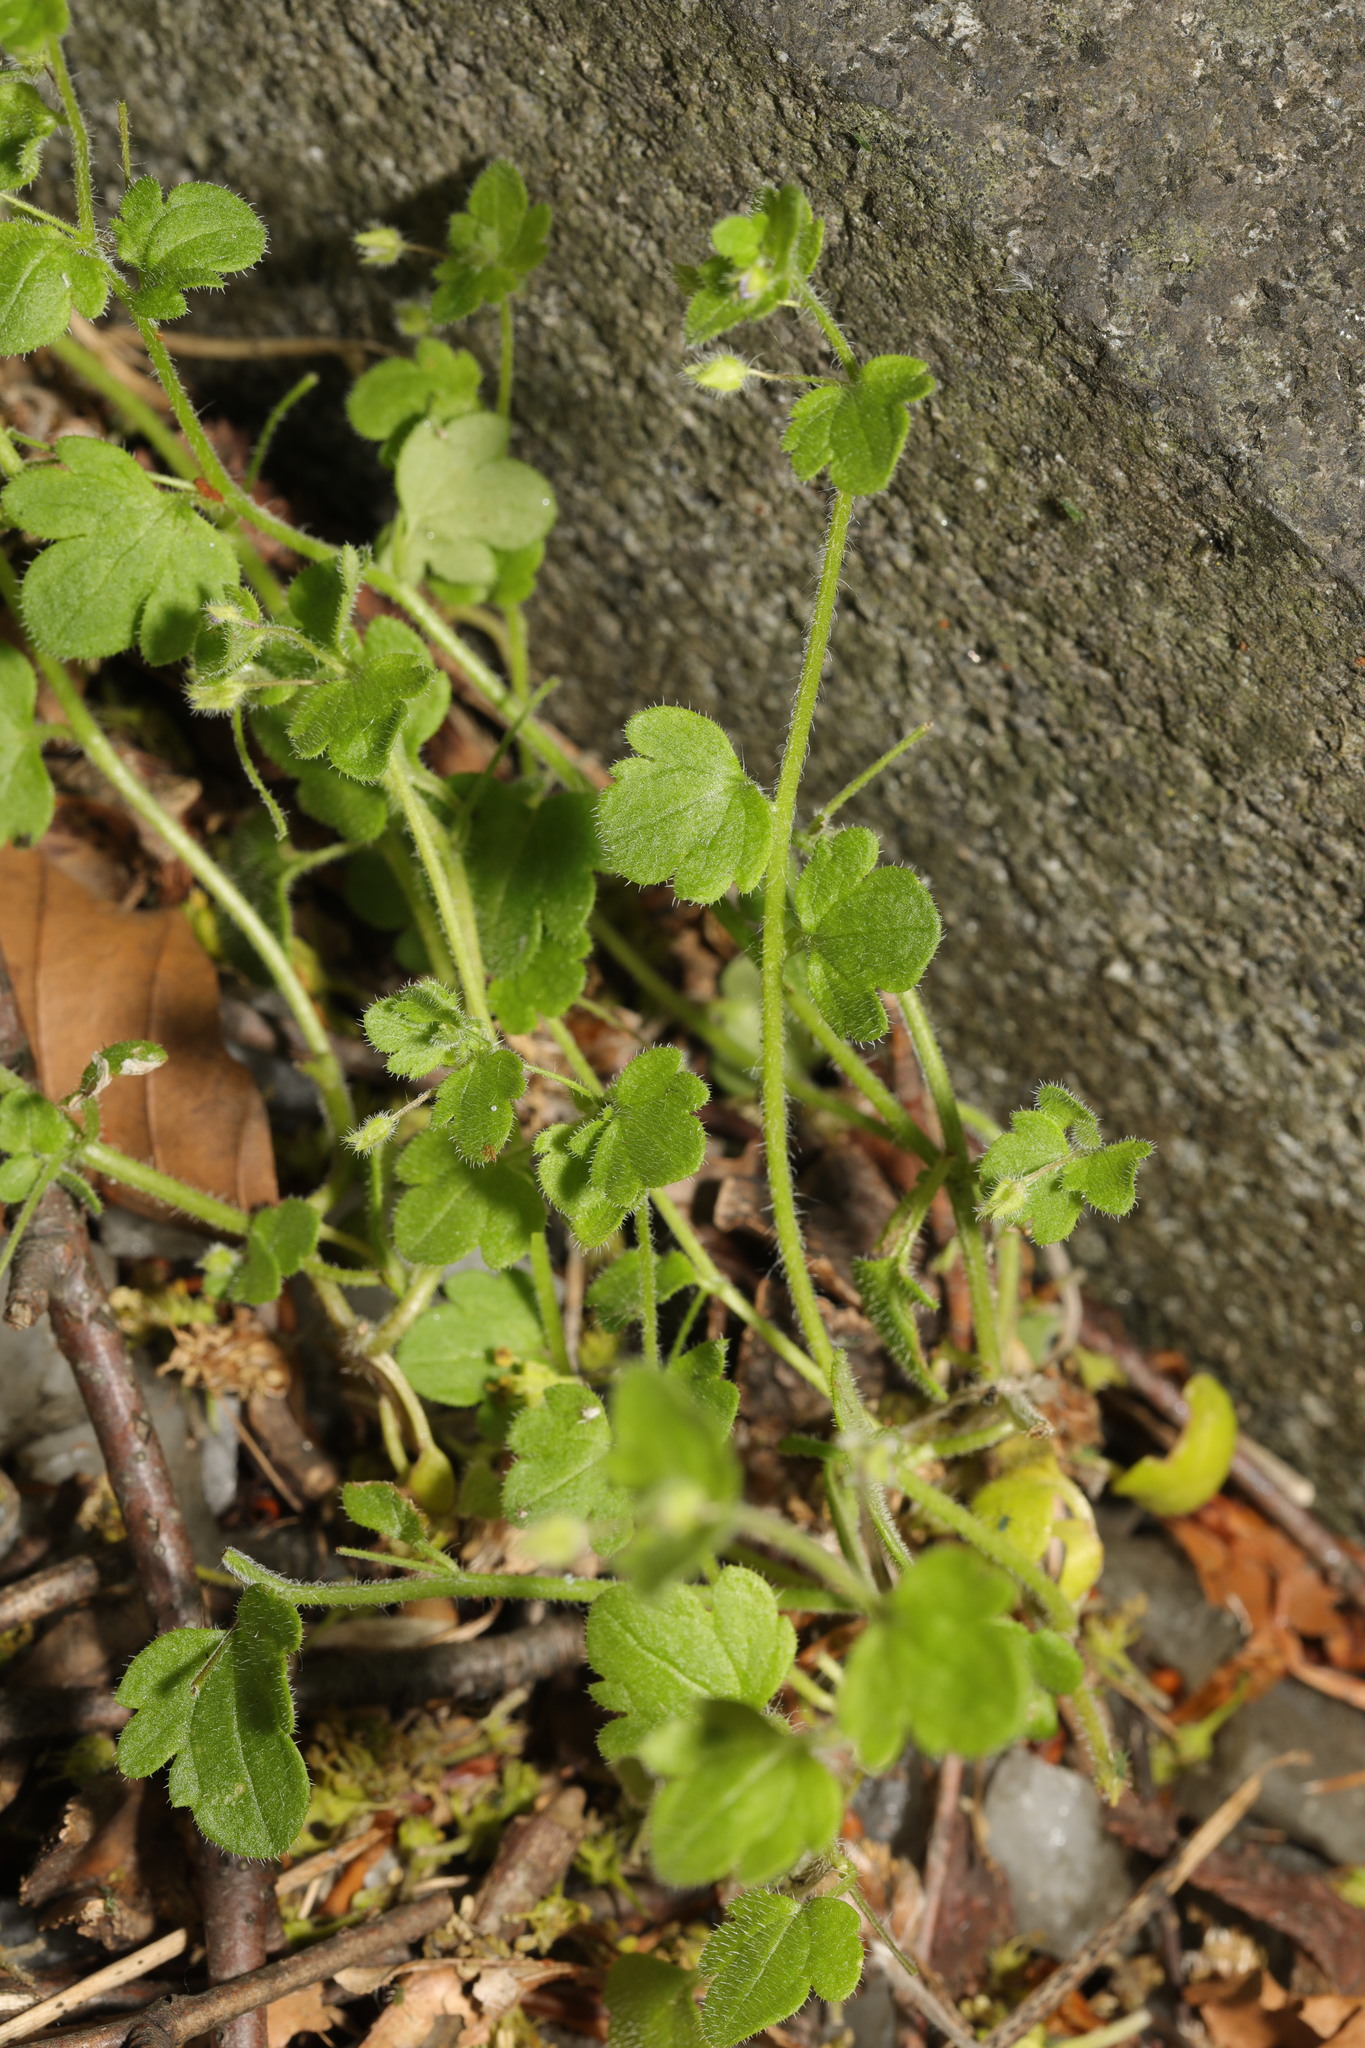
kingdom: Plantae
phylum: Tracheophyta
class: Magnoliopsida
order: Lamiales
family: Plantaginaceae
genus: Veronica
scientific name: Veronica hederifolia
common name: Ivy-leaved speedwell
